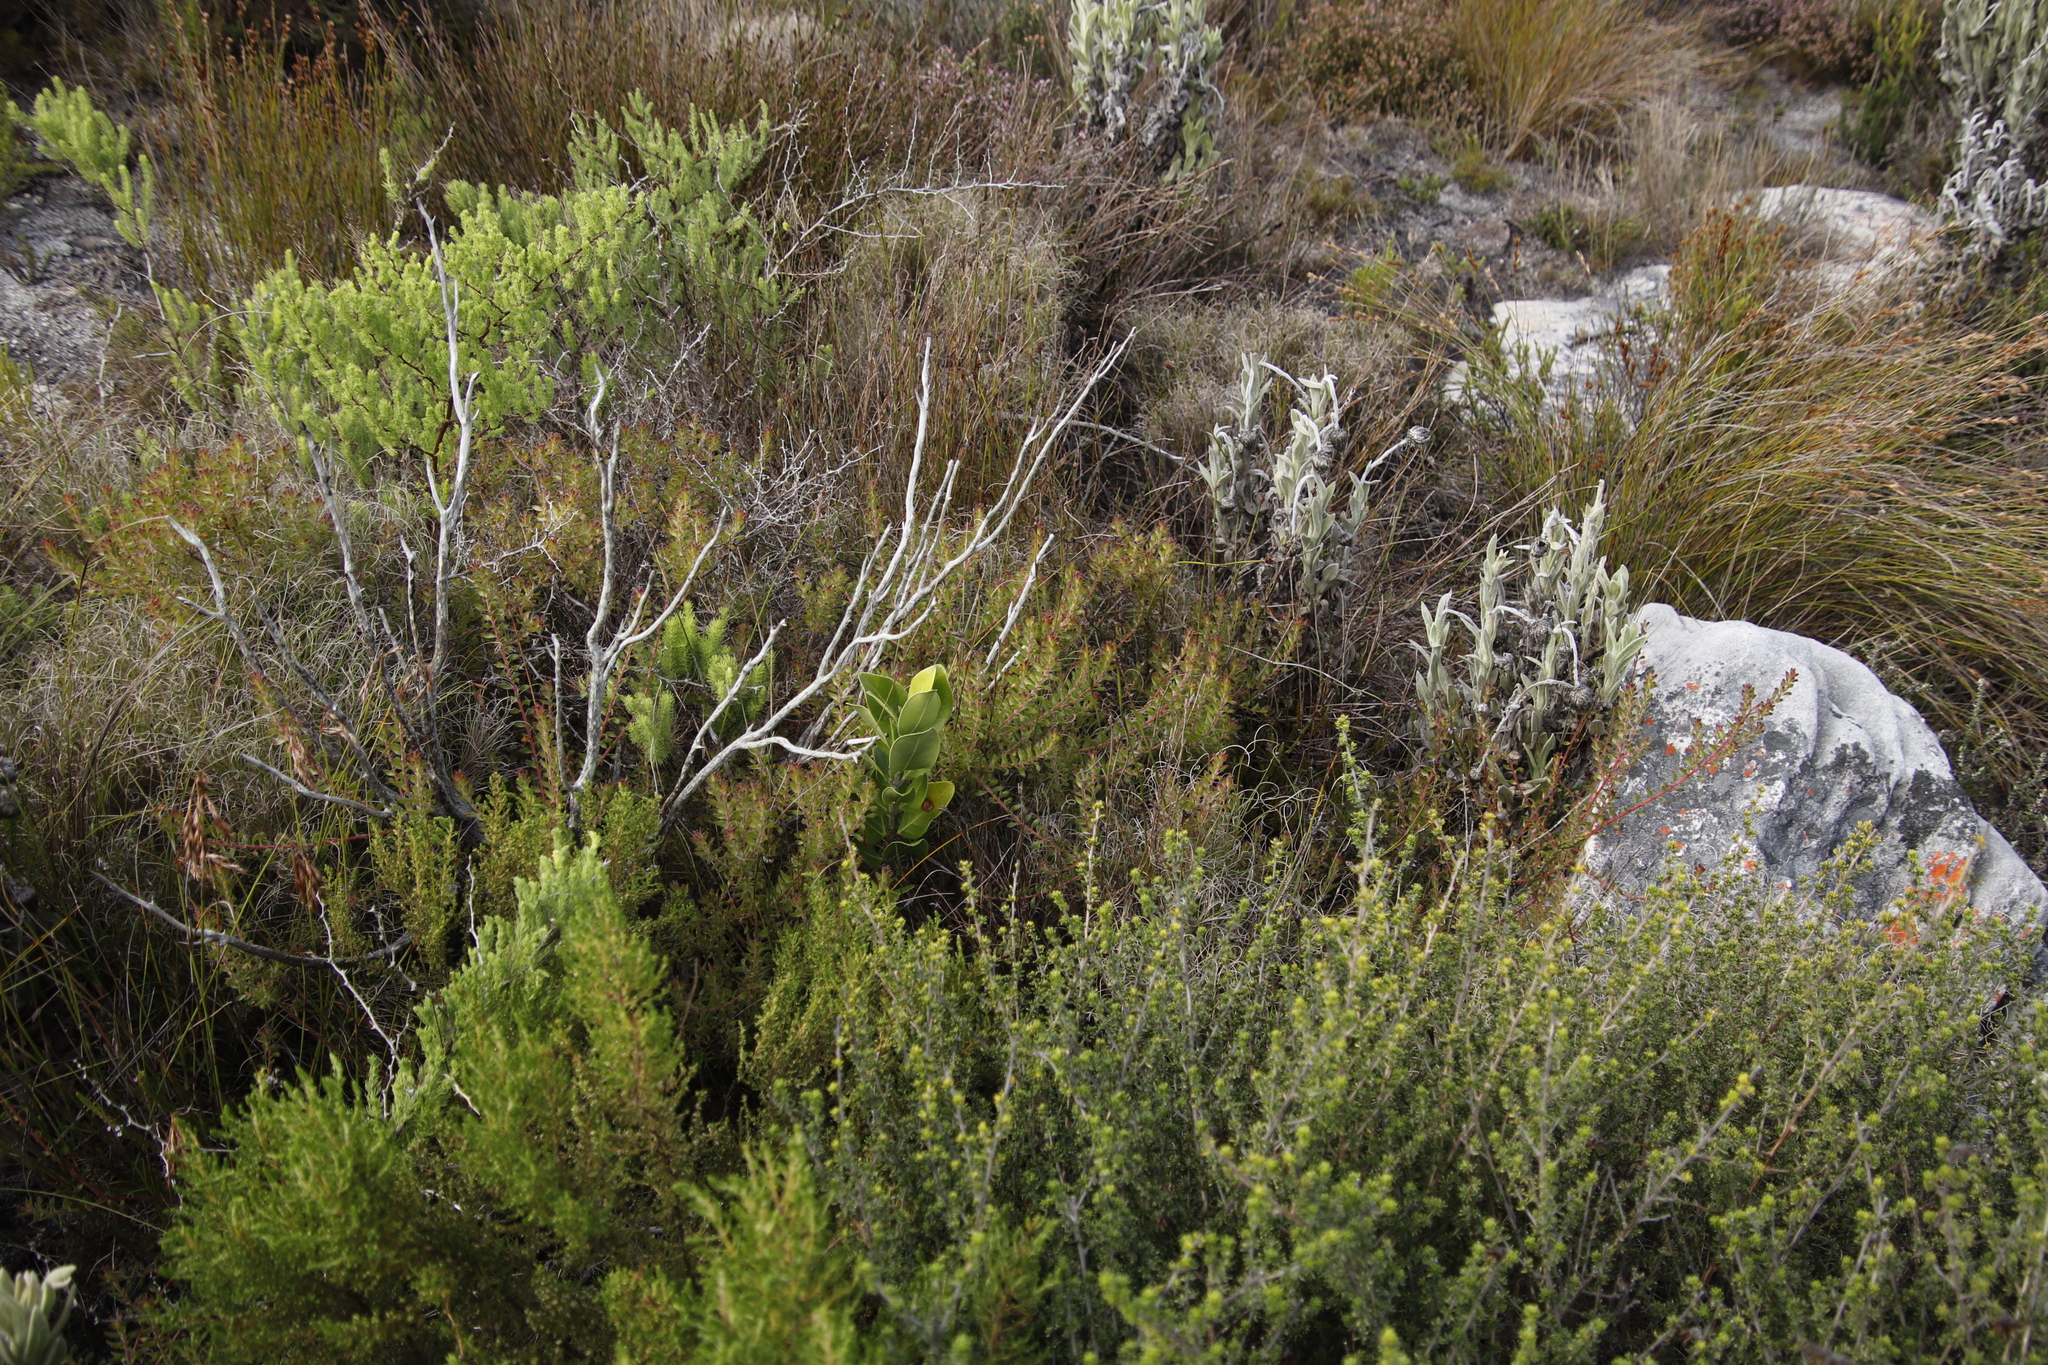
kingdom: Plantae
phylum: Tracheophyta
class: Magnoliopsida
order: Proteales
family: Proteaceae
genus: Diastella
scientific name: Diastella divaricata
